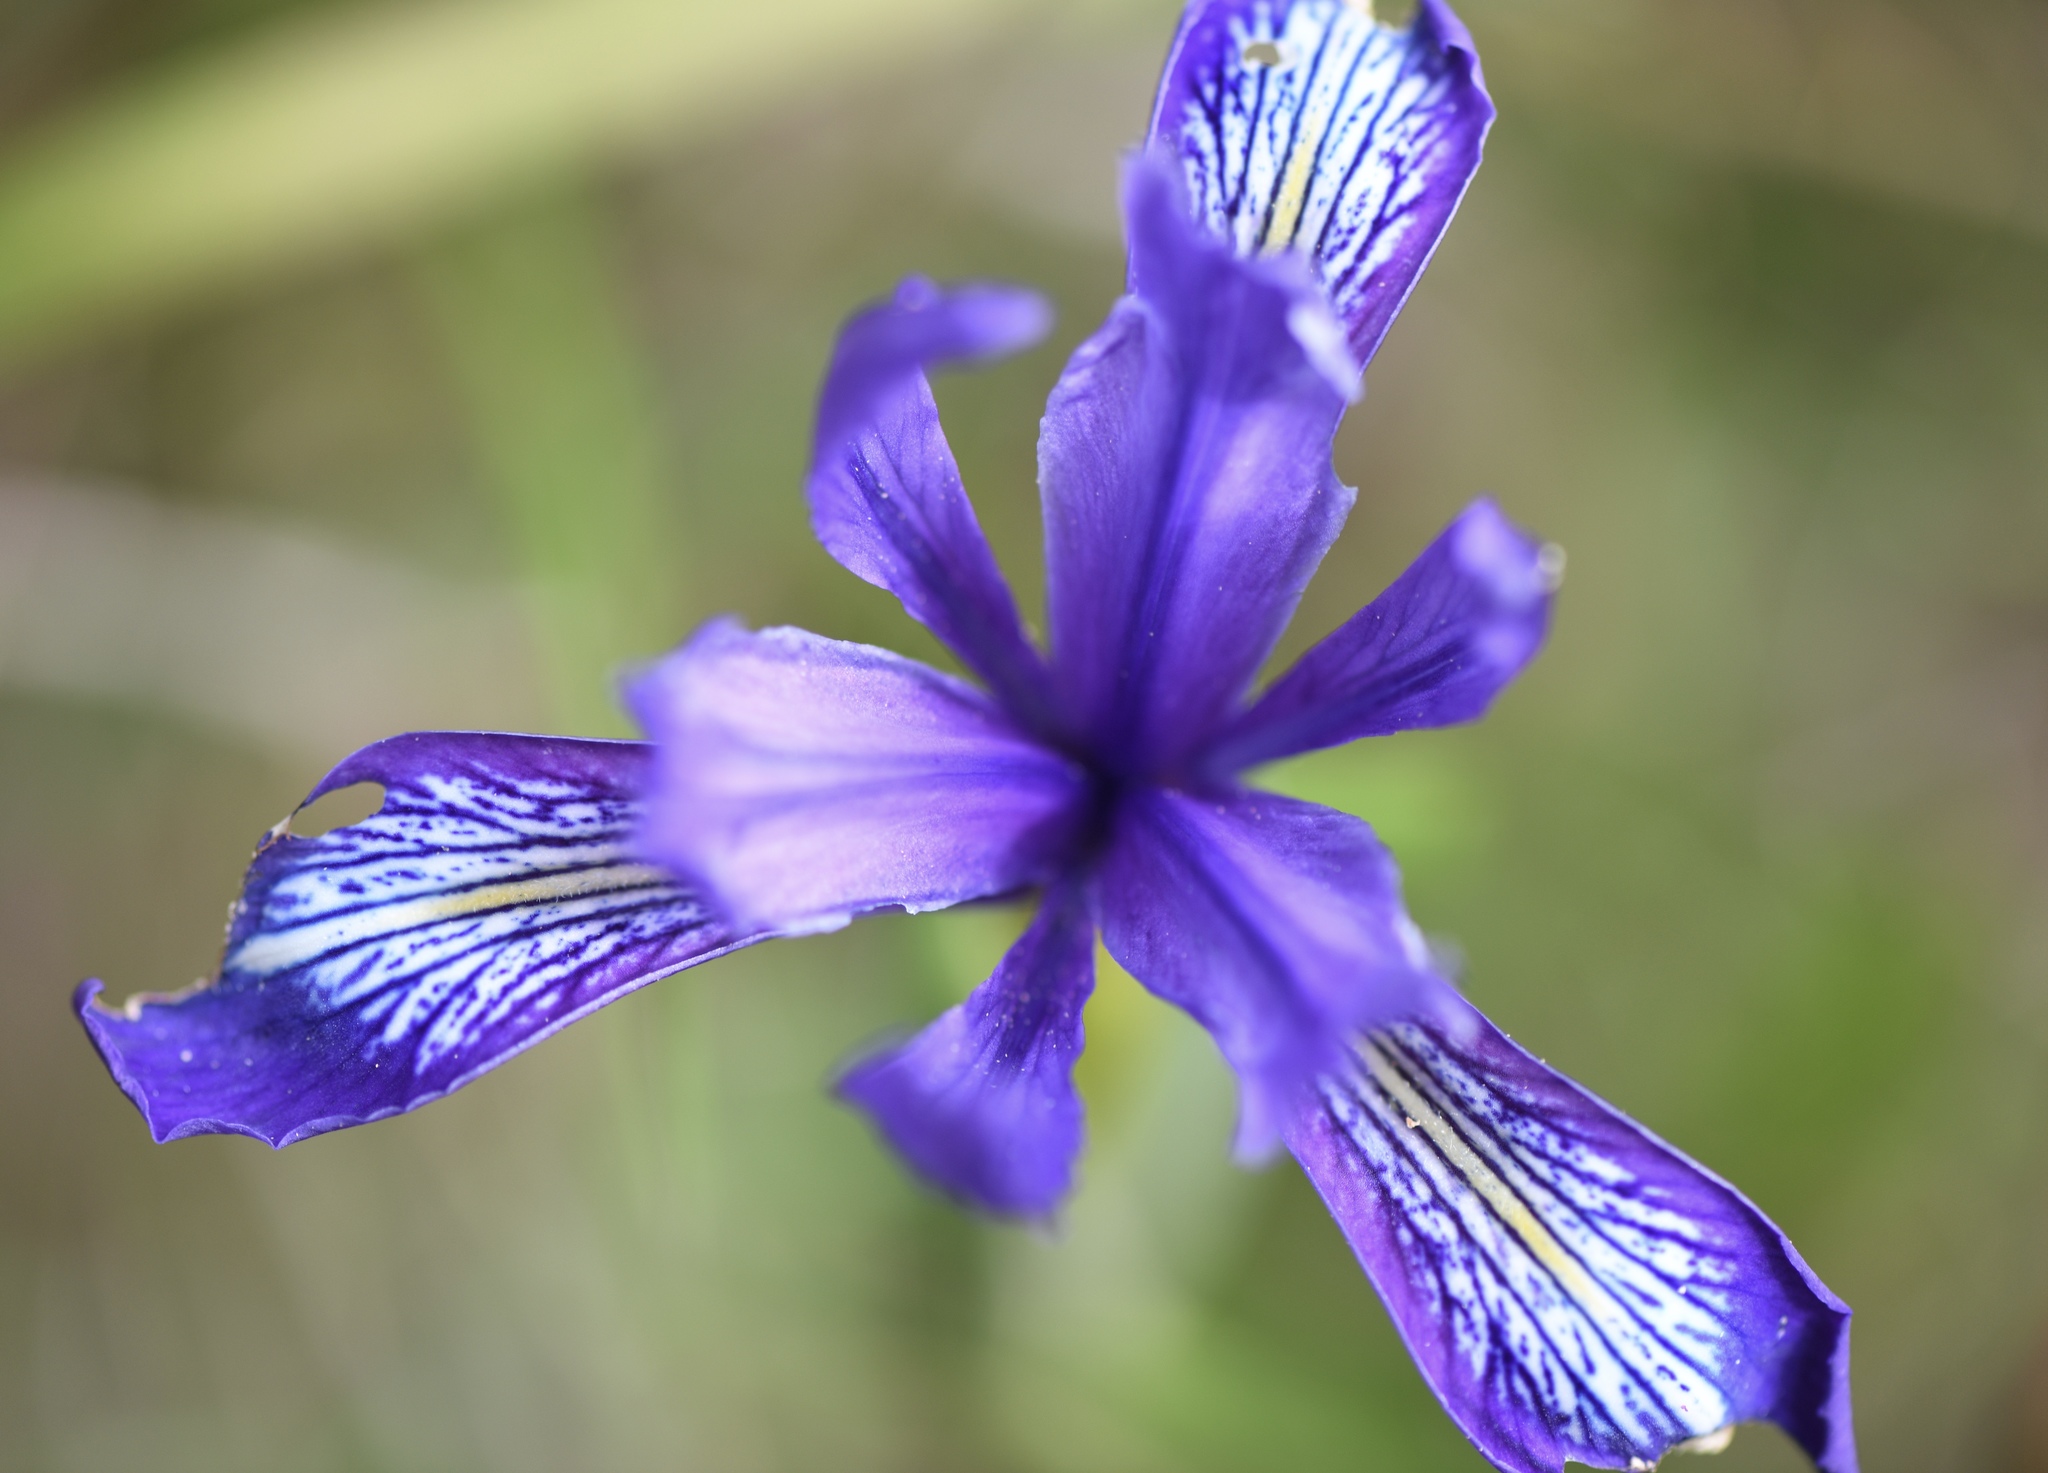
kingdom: Plantae
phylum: Tracheophyta
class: Liliopsida
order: Asparagales
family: Iridaceae
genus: Iris
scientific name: Iris douglasiana
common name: Marin iris
